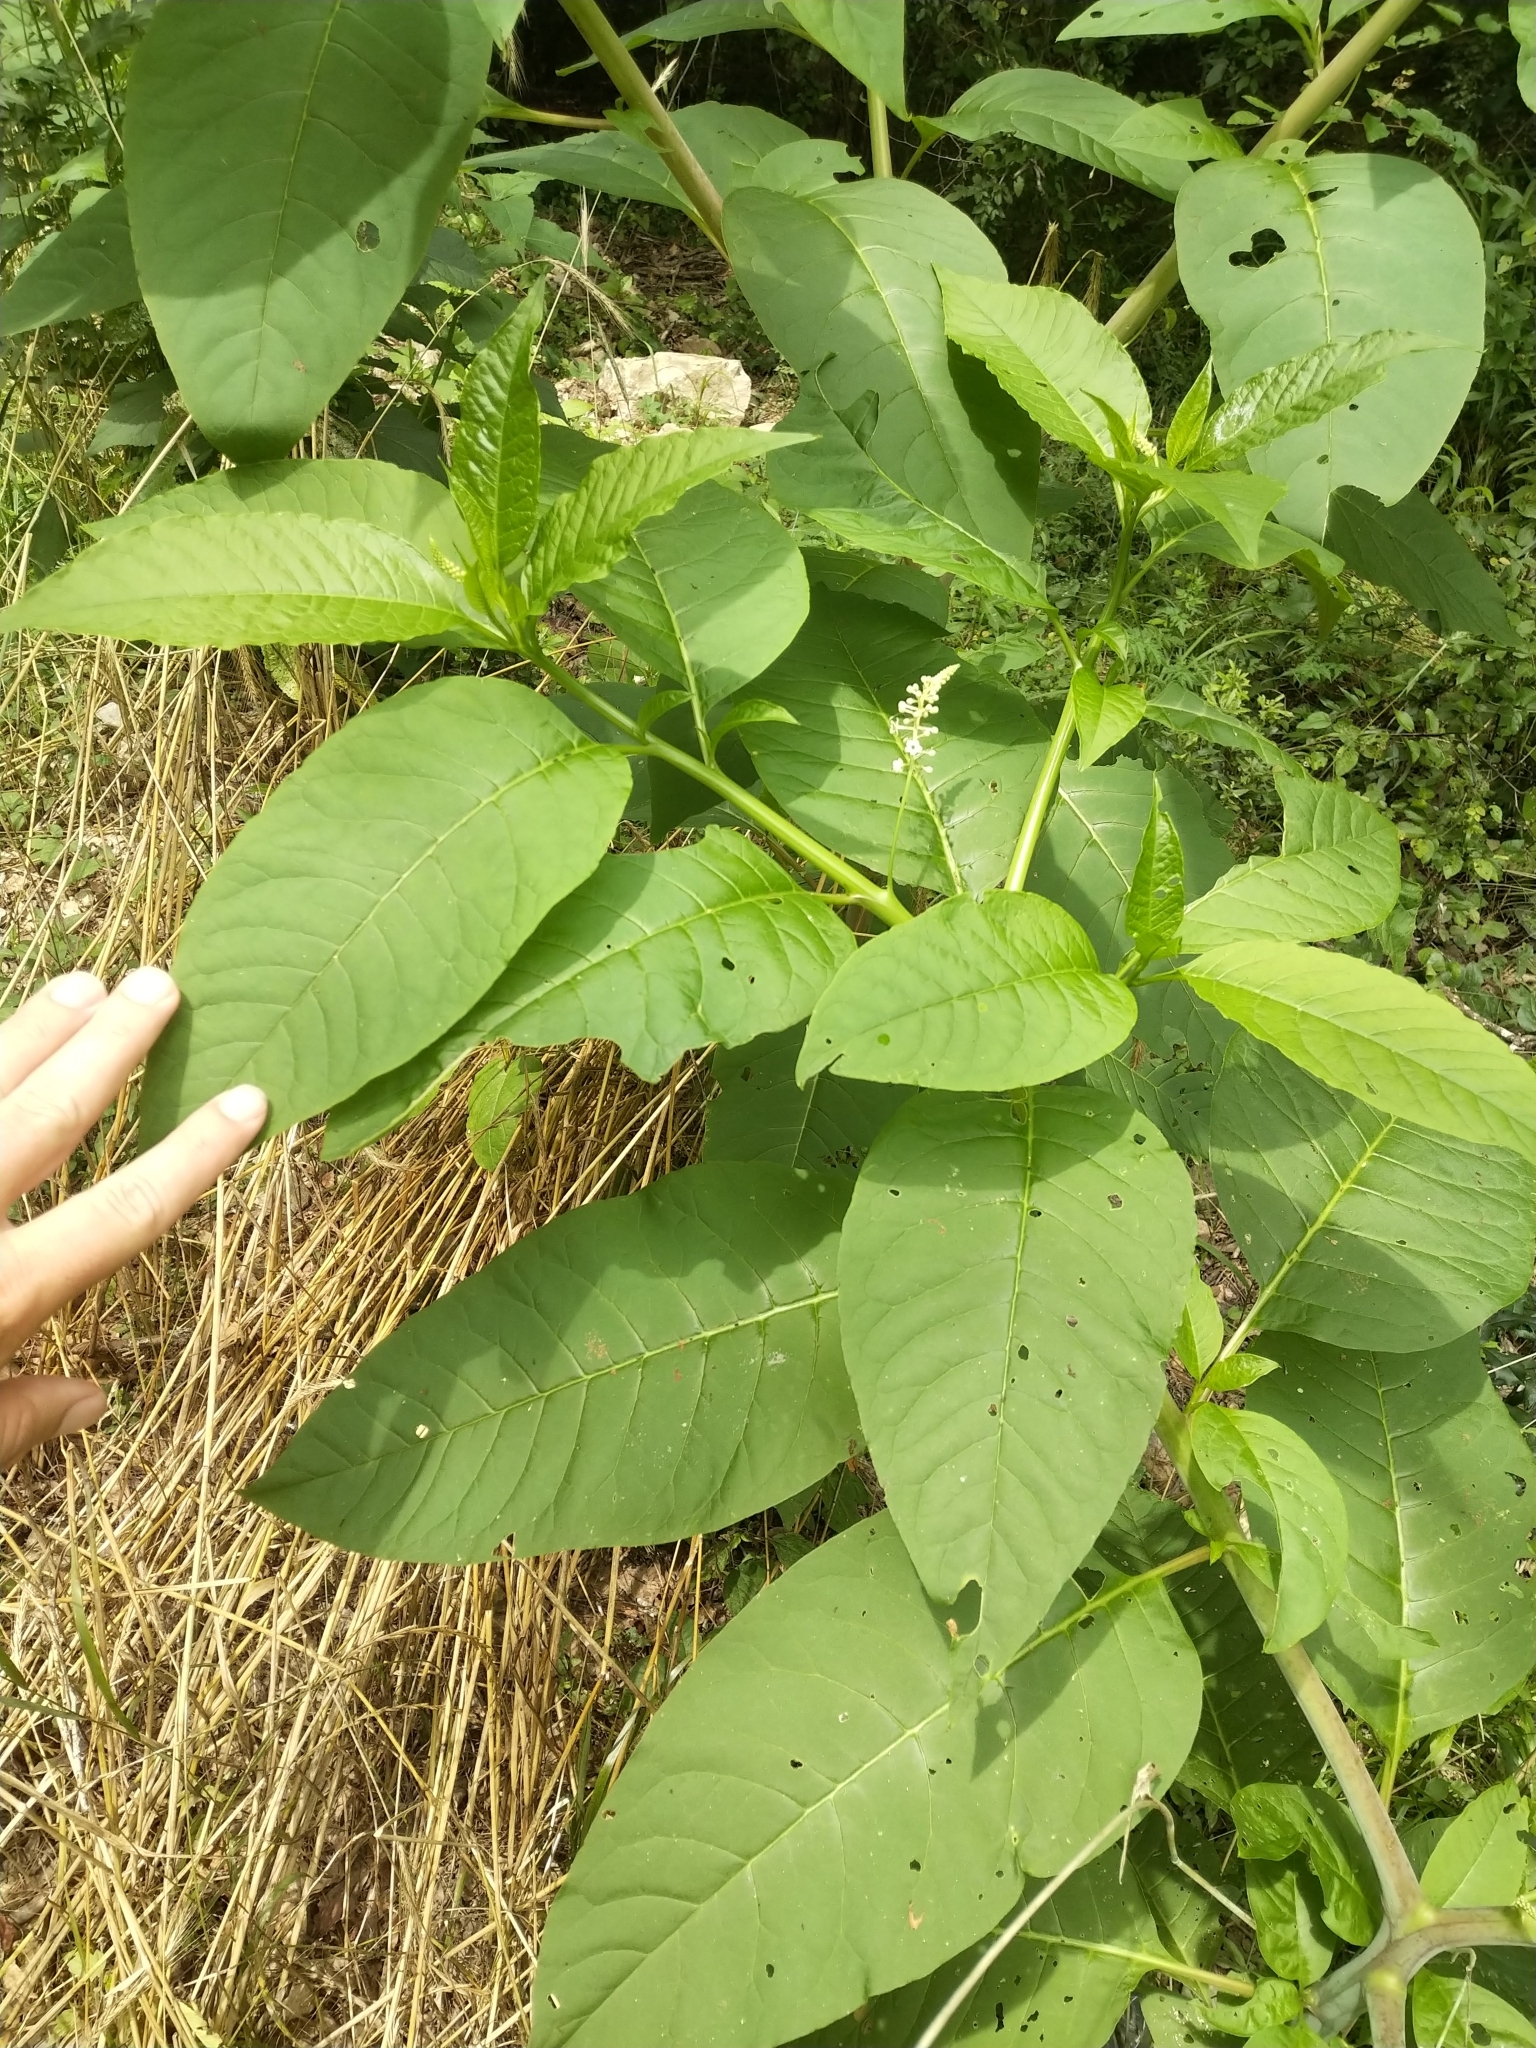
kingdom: Plantae
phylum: Tracheophyta
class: Magnoliopsida
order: Caryophyllales
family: Phytolaccaceae
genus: Phytolacca
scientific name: Phytolacca americana
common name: American pokeweed
